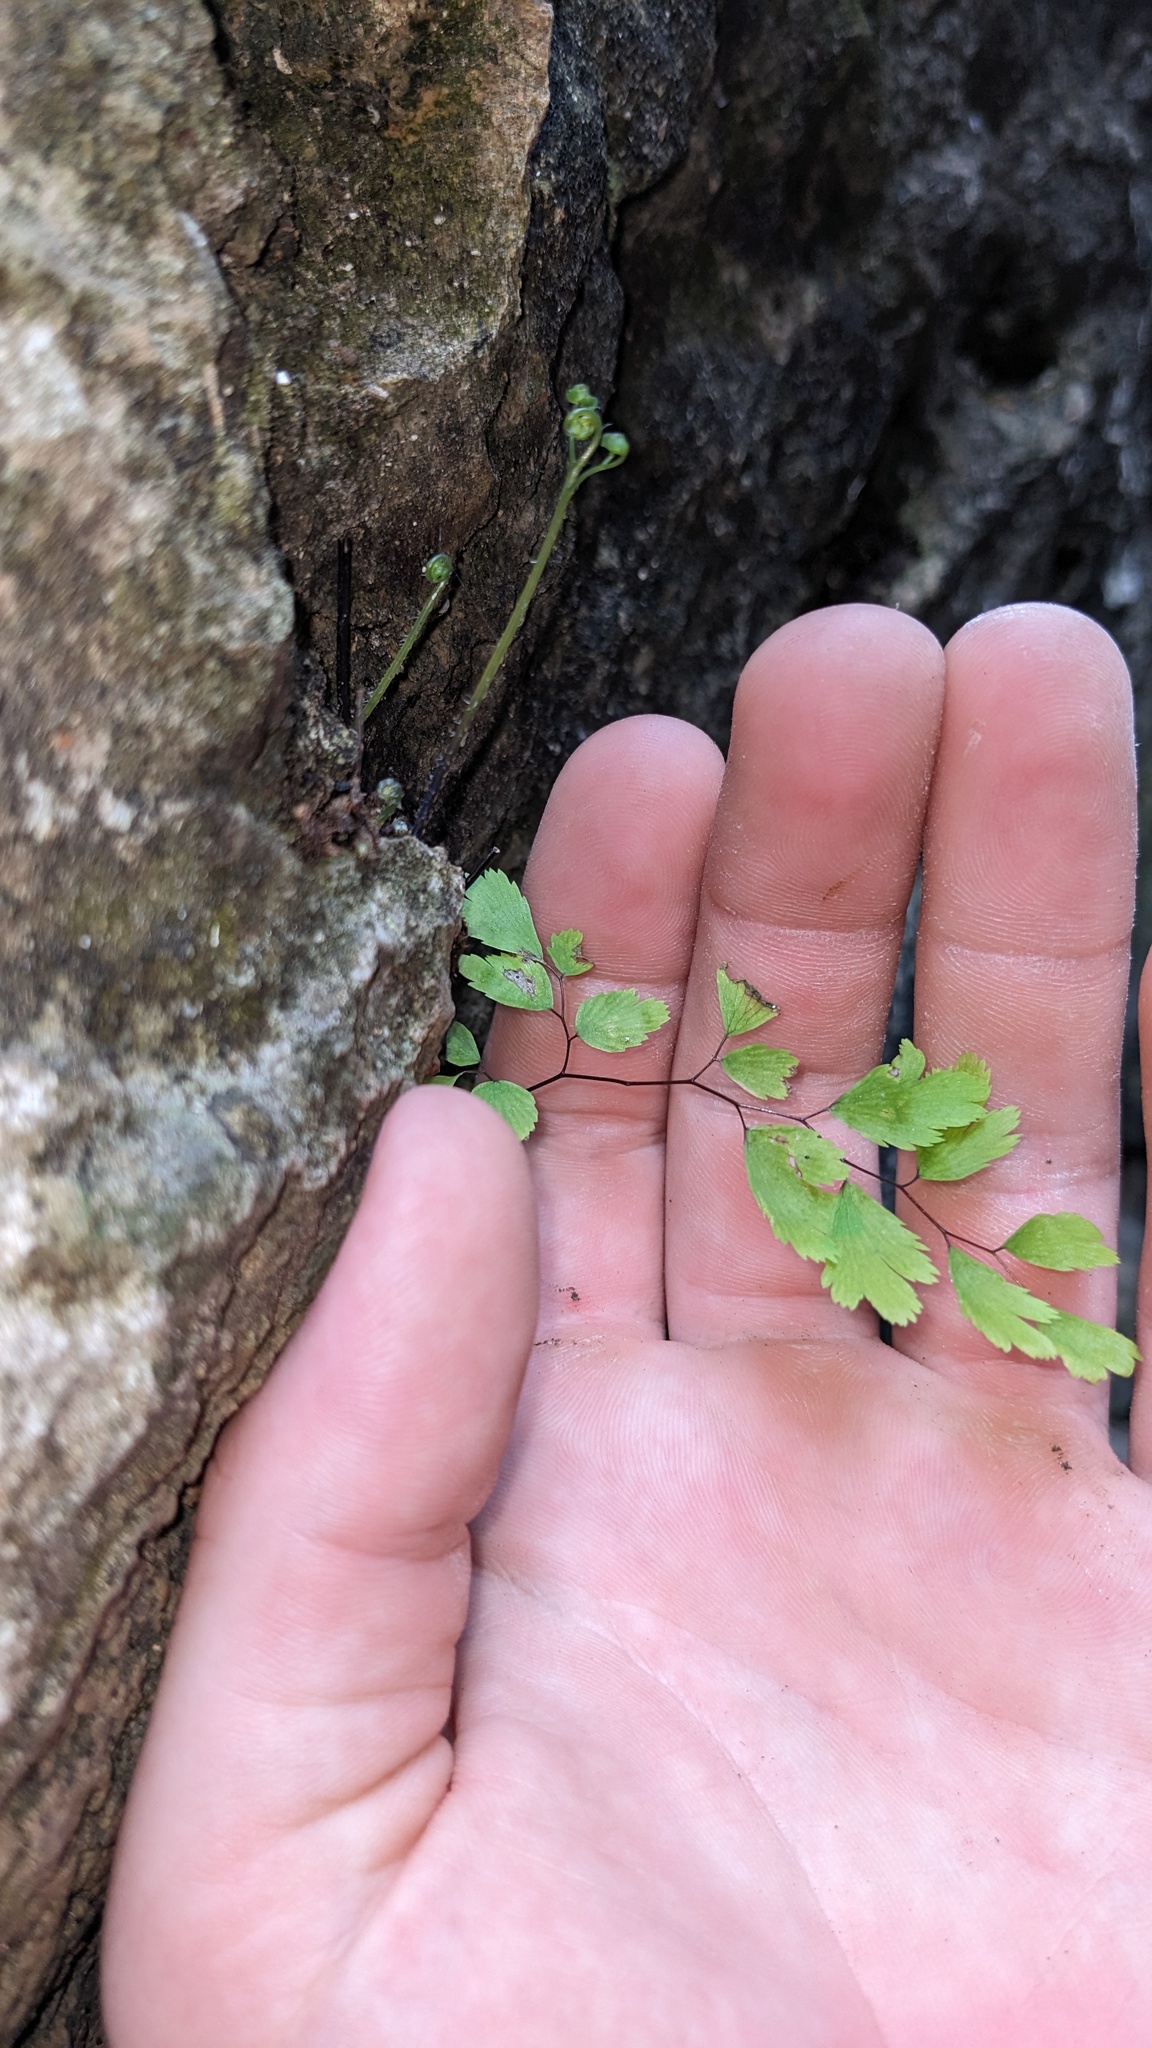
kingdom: Plantae
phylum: Tracheophyta
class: Polypodiopsida
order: Polypodiales
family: Pteridaceae
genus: Adiantum
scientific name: Adiantum capillus-veneris
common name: Maidenhair fern
